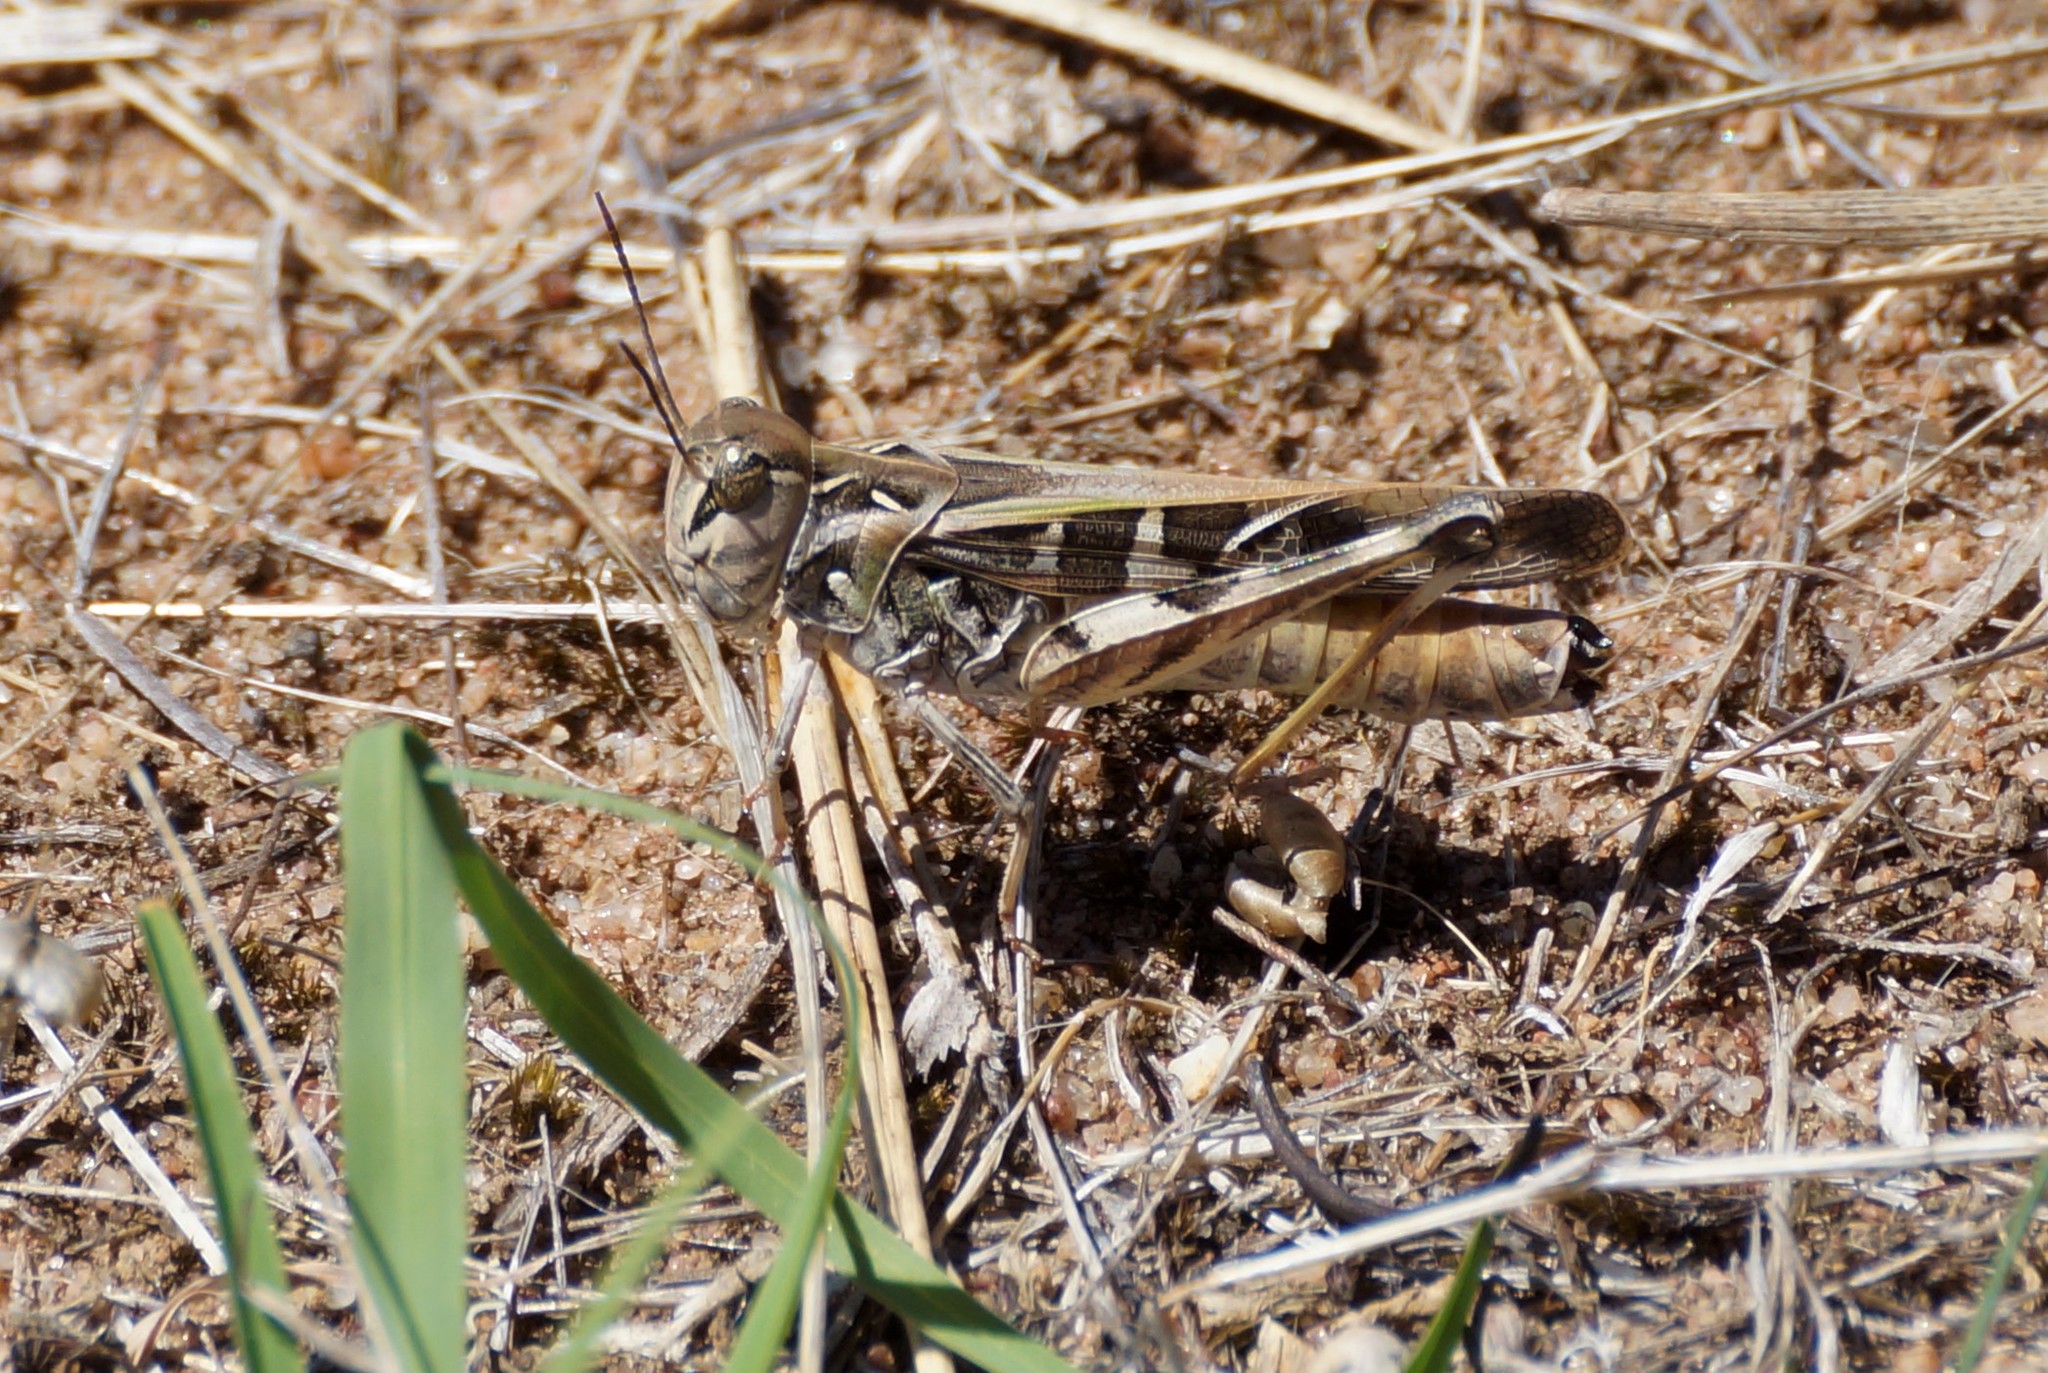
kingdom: Animalia
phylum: Arthropoda
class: Insecta
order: Orthoptera
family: Acrididae
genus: Oedaleus
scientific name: Oedaleus australis
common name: Eastern oedaleus
